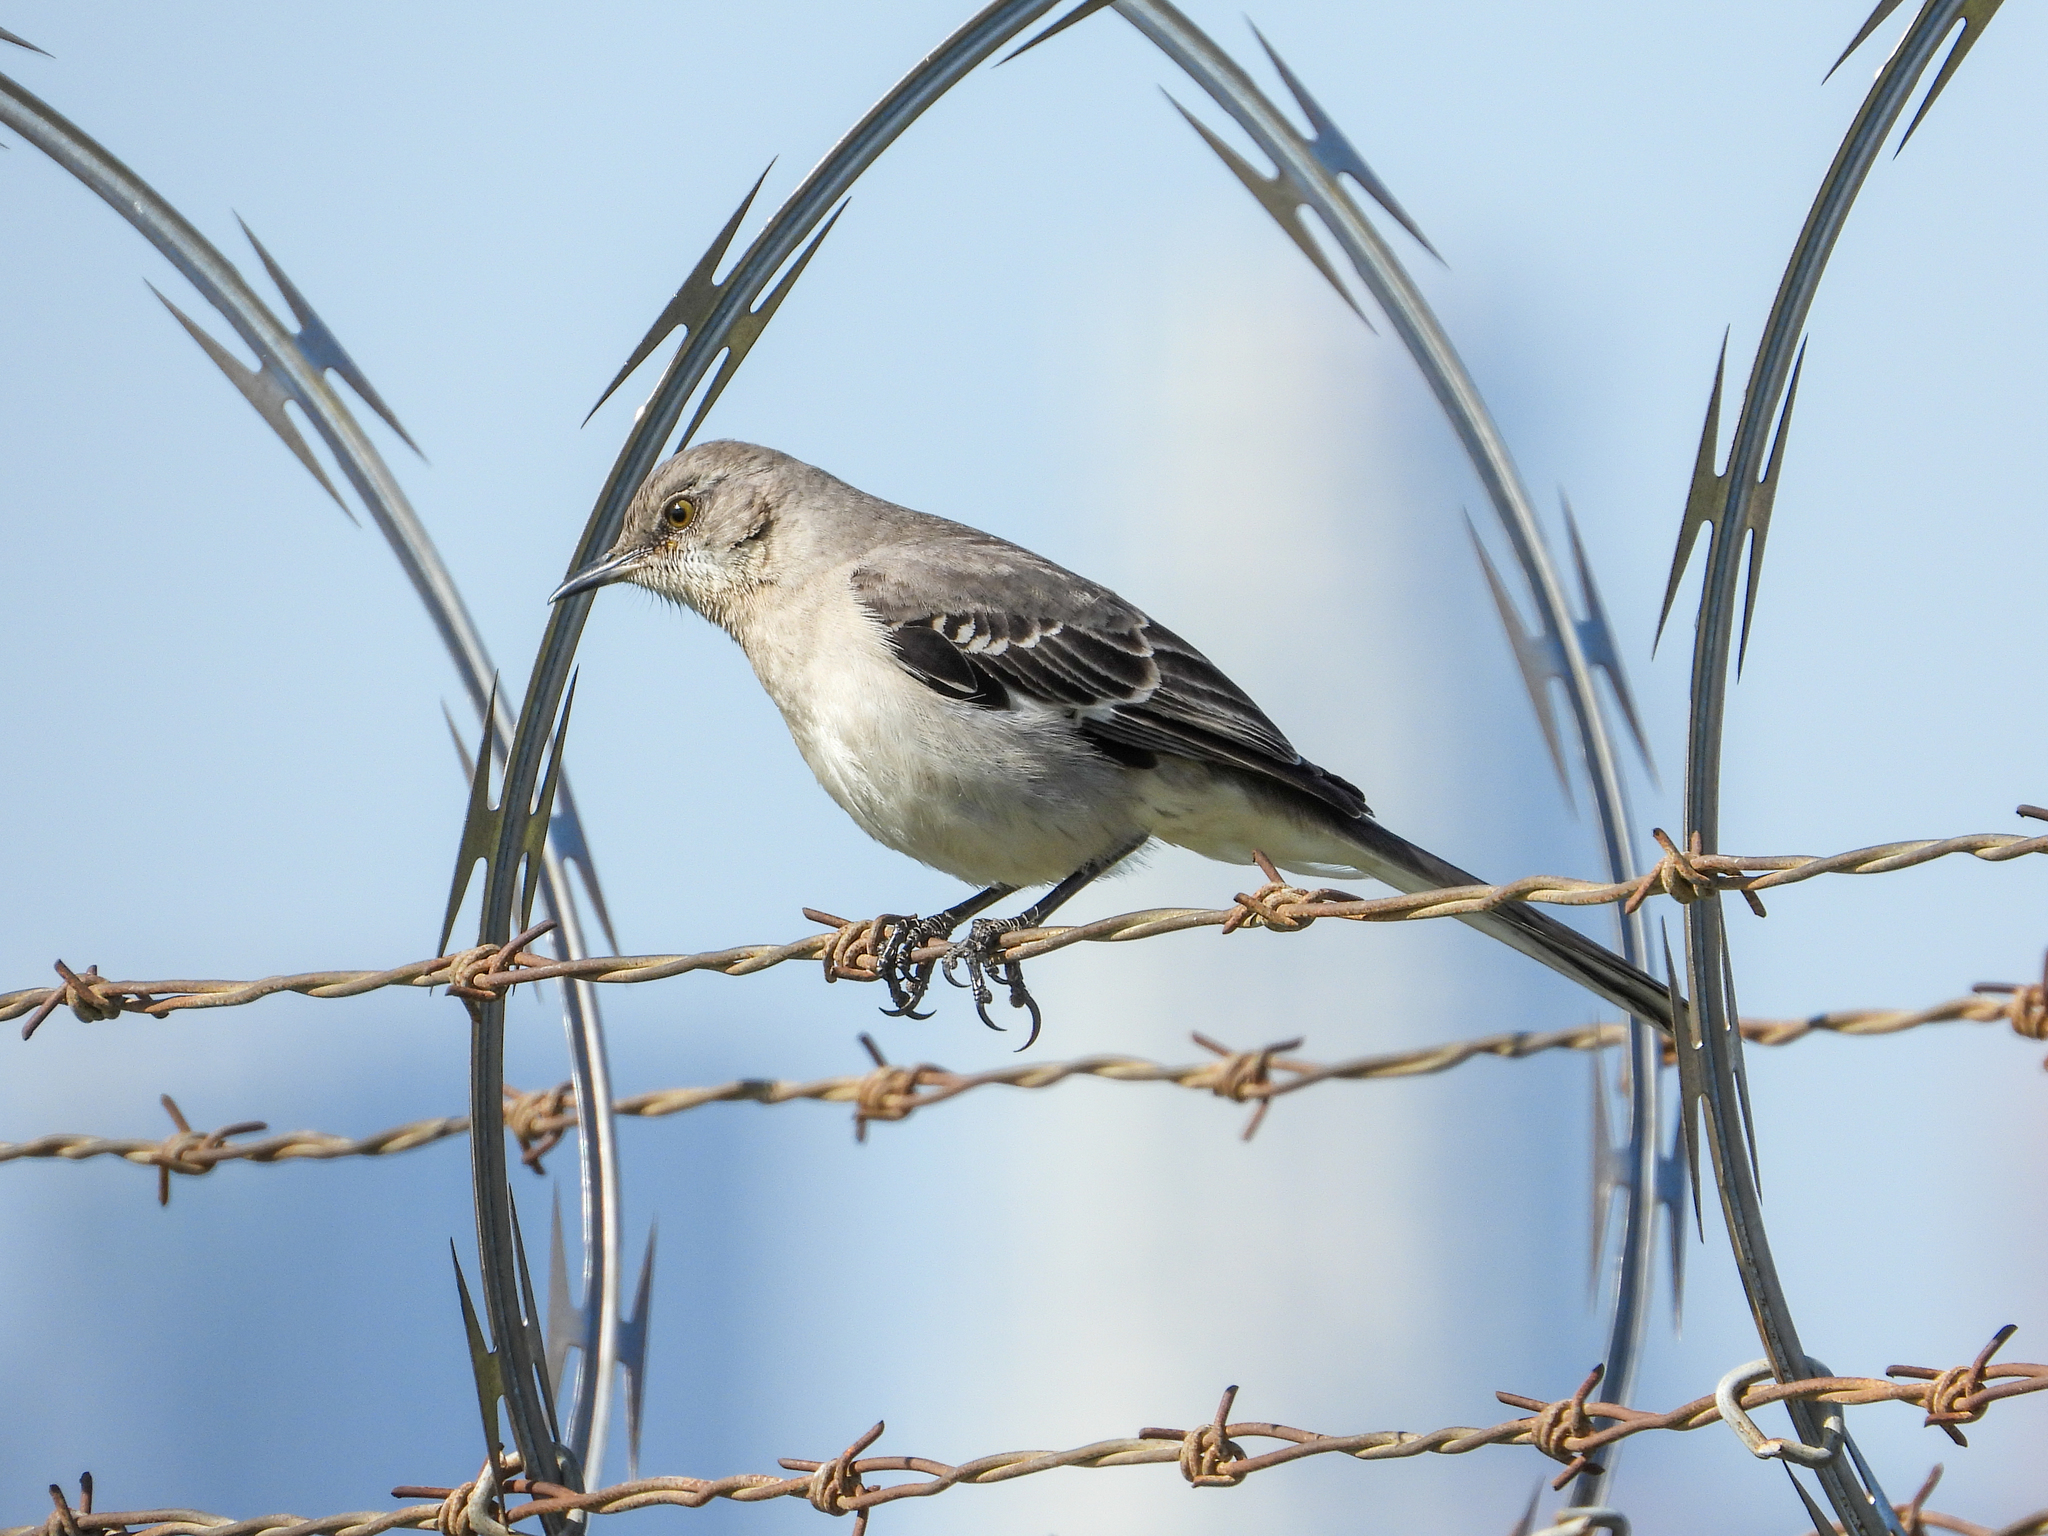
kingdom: Animalia
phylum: Chordata
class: Aves
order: Passeriformes
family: Mimidae
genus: Mimus
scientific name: Mimus polyglottos
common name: Northern mockingbird
